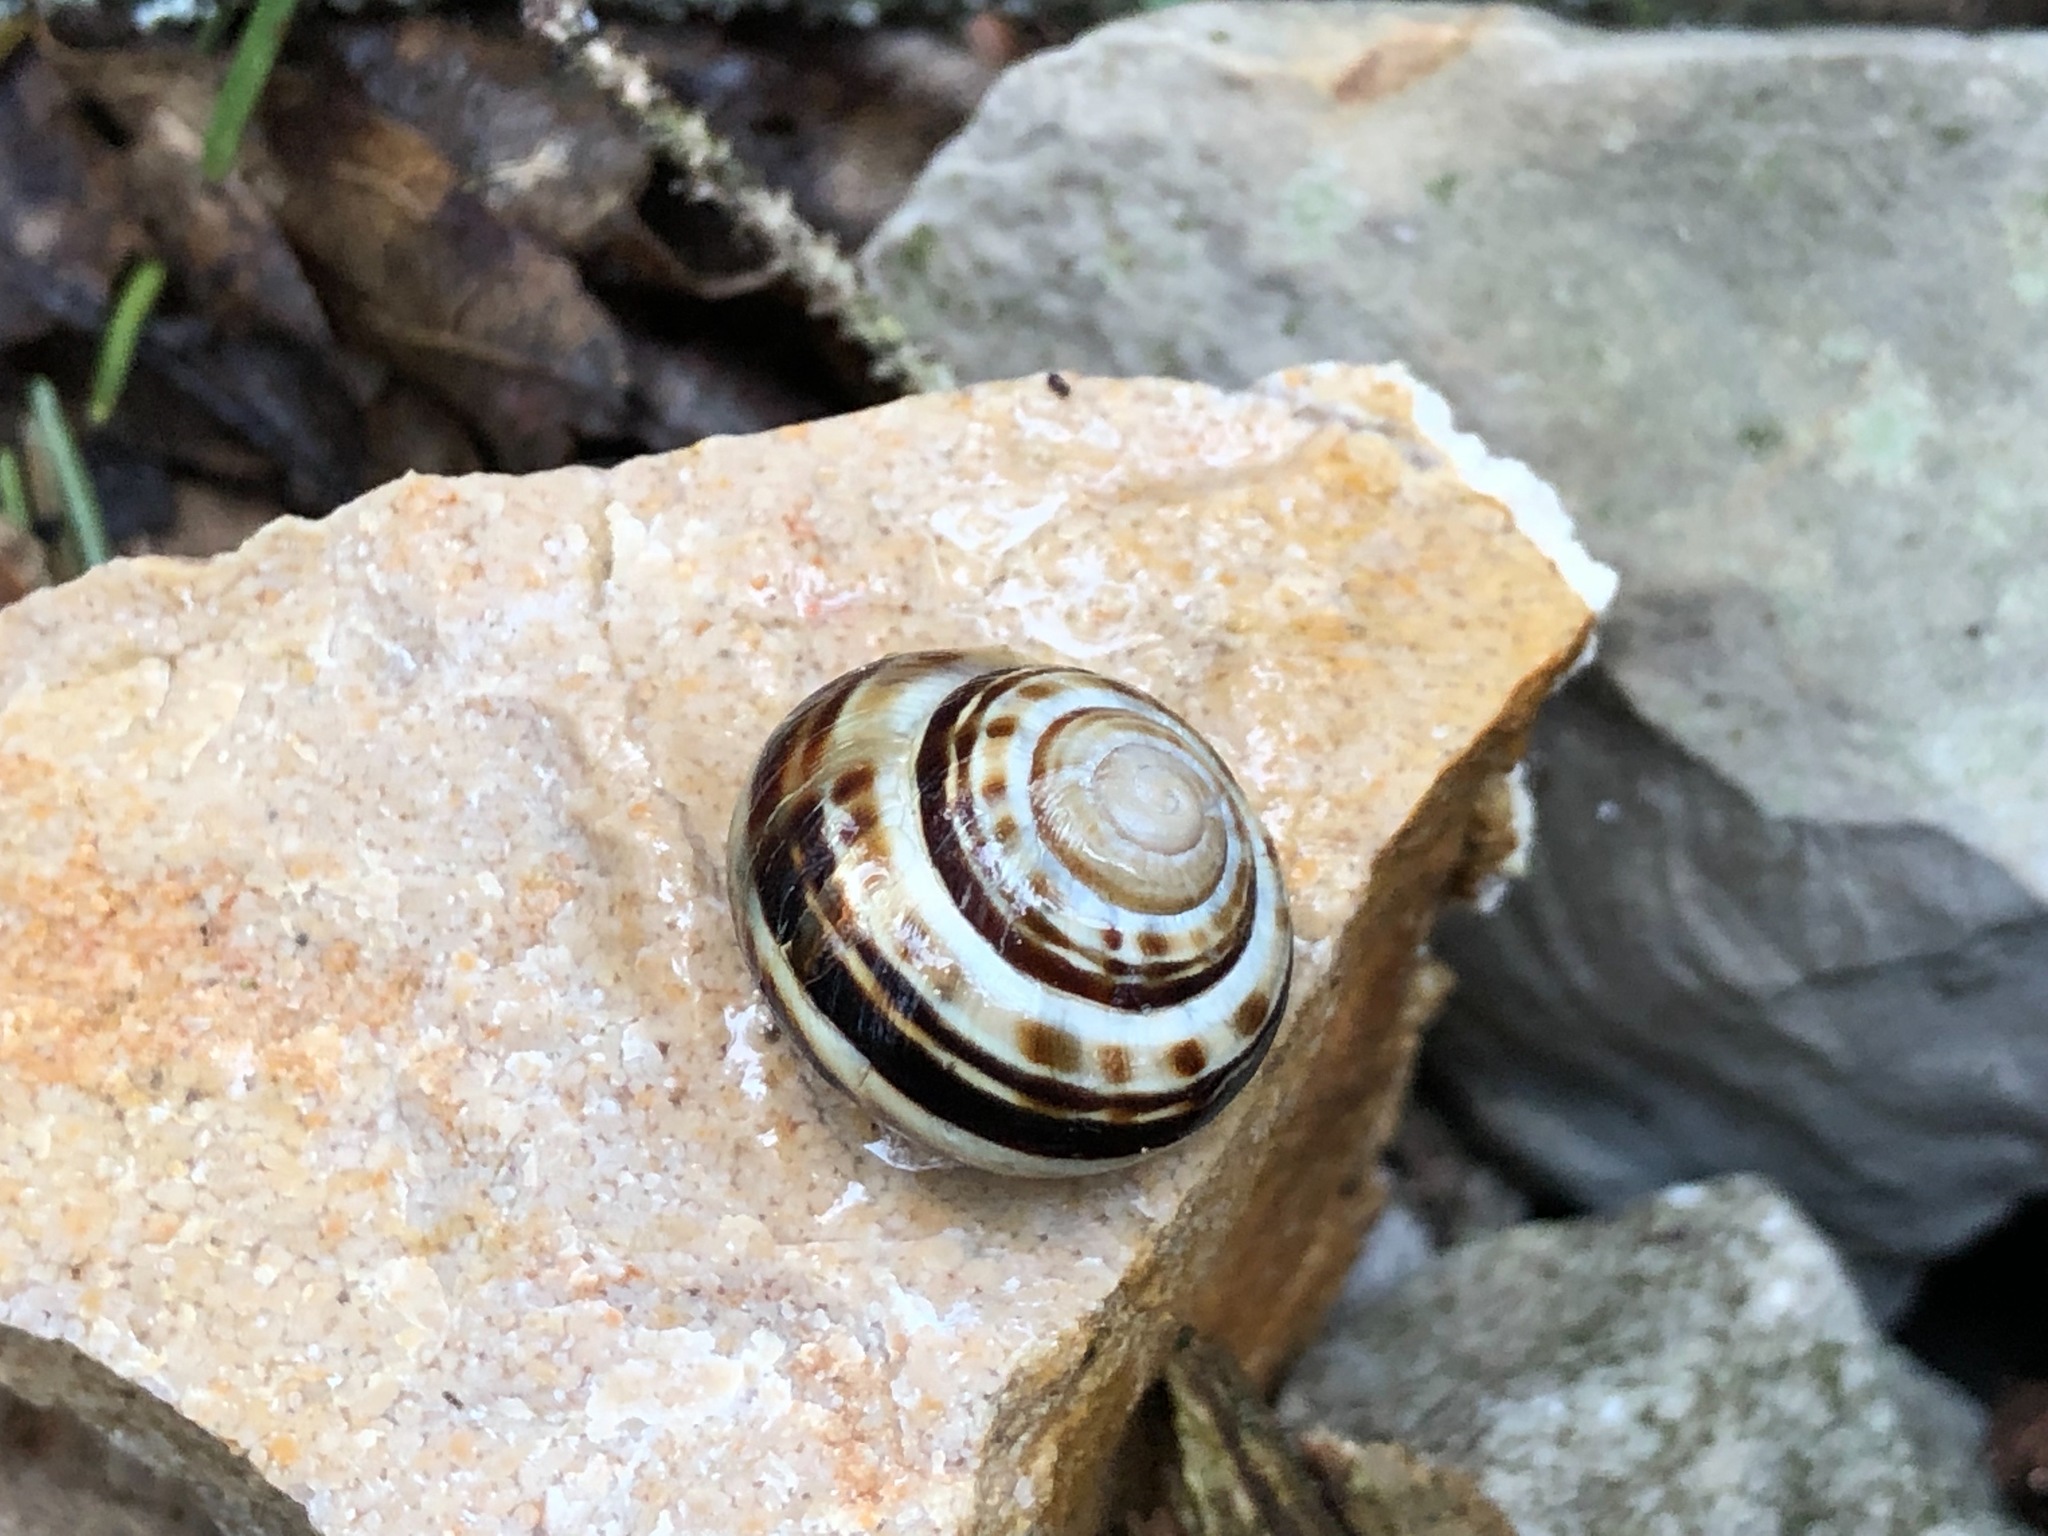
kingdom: Animalia
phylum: Mollusca
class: Gastropoda
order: Stylommatophora
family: Helicidae
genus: Macularia
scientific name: Macularia sylvatica
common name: Hélice sylvatique
